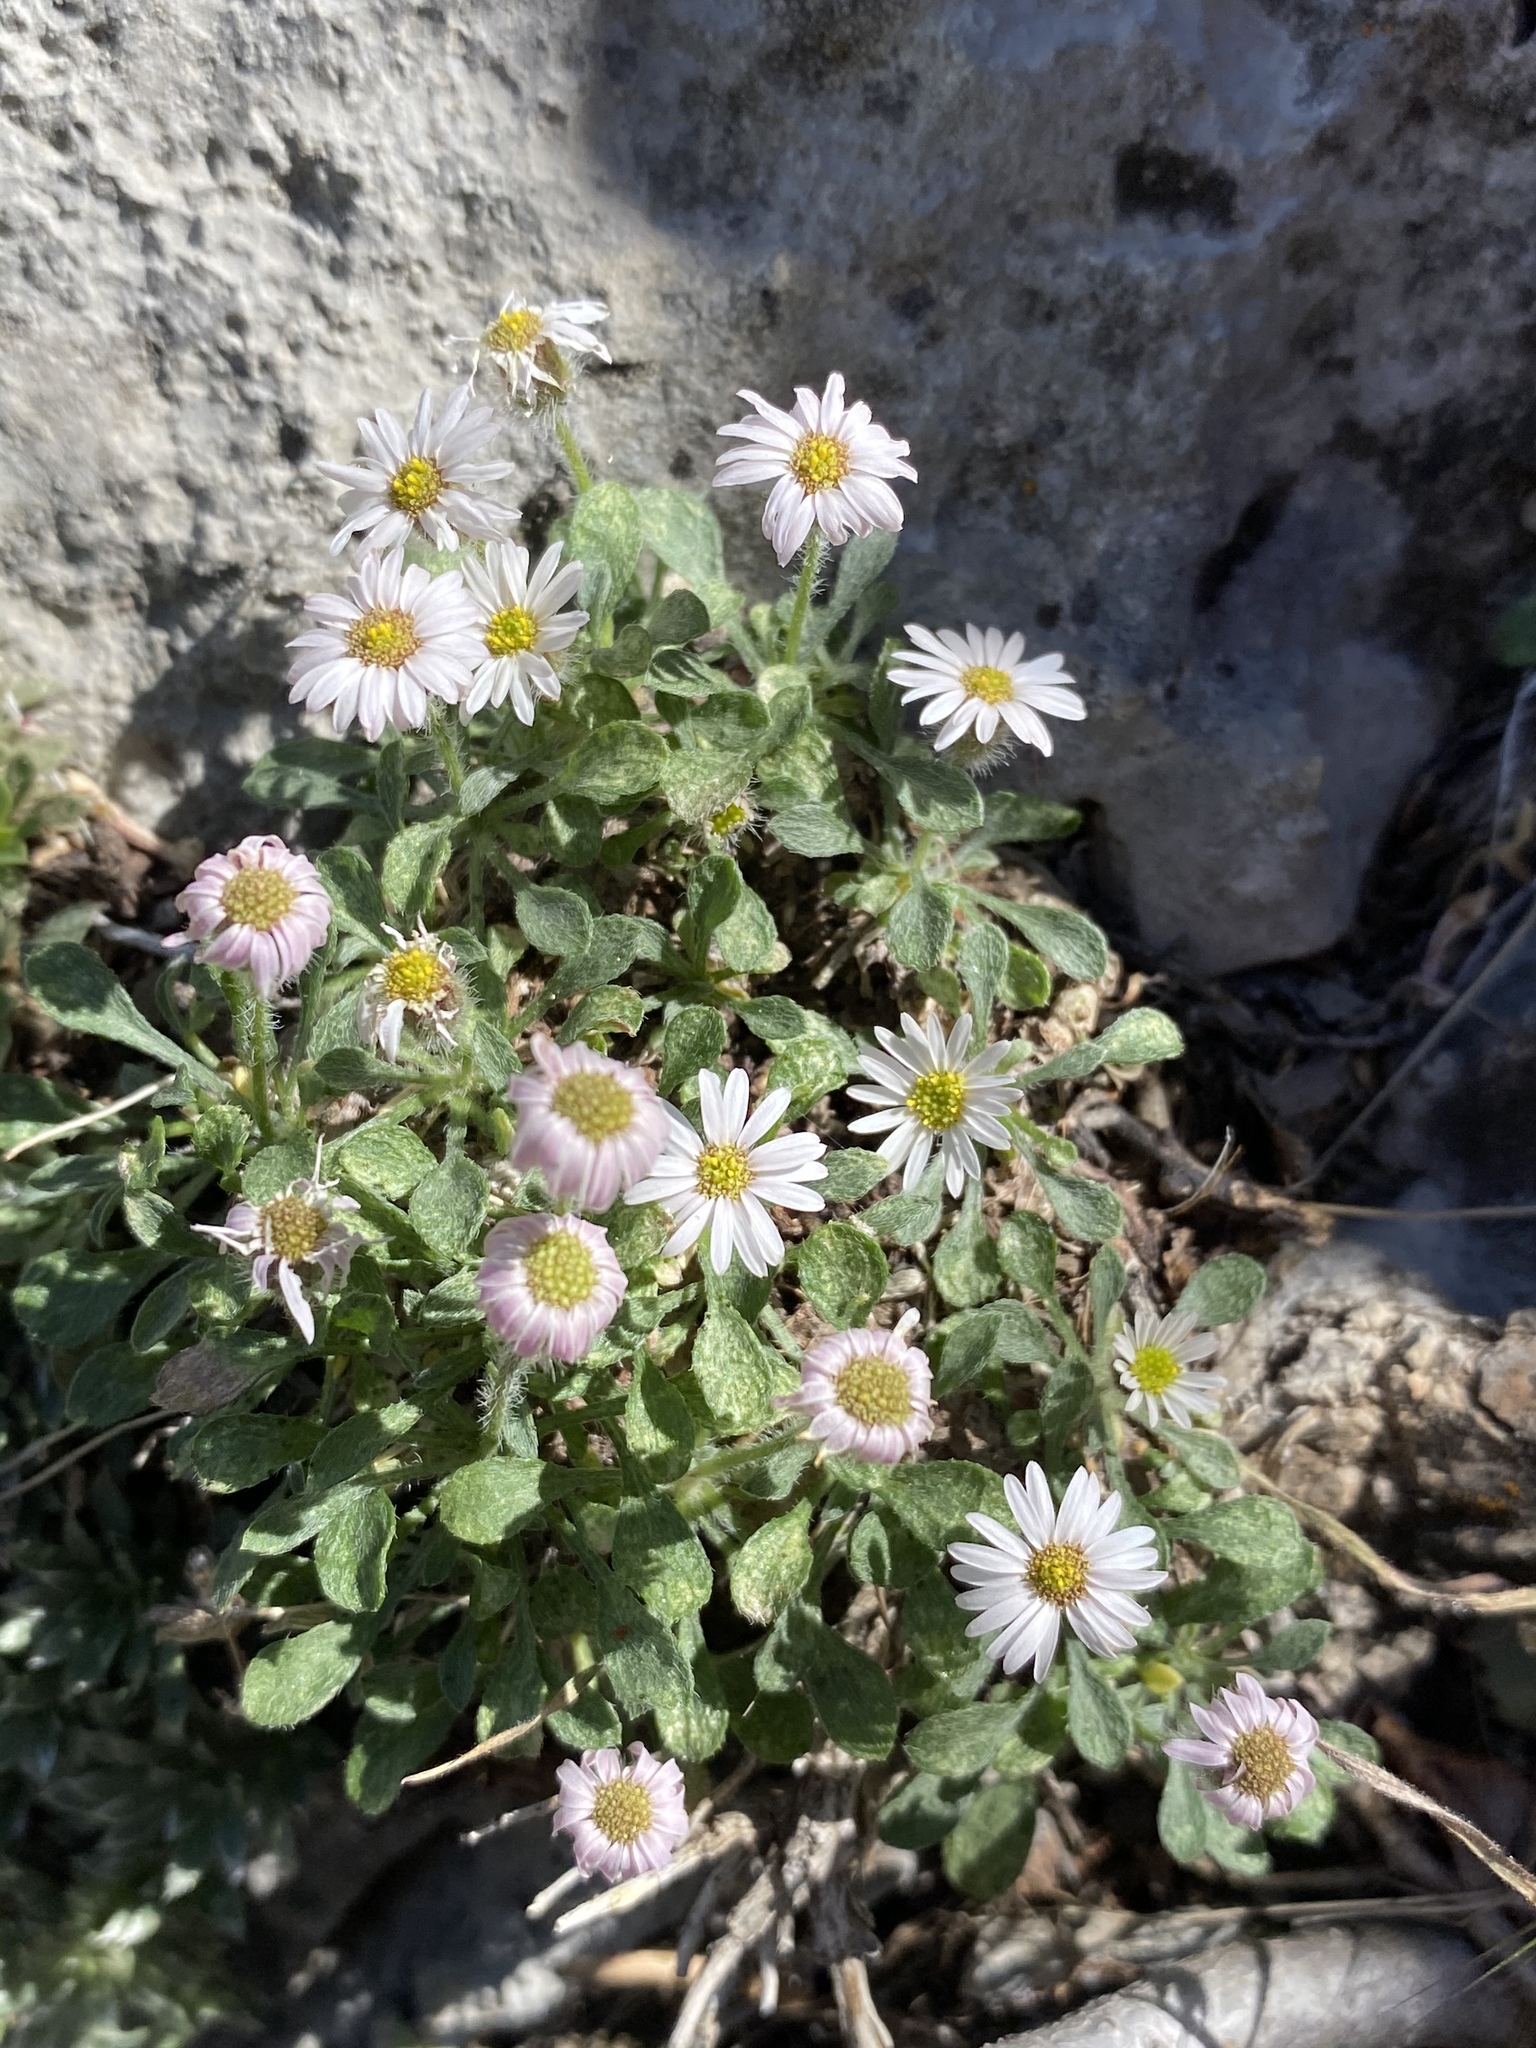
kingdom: Plantae
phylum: Tracheophyta
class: Magnoliopsida
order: Asterales
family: Asteraceae
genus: Erigeron
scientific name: Erigeron uncialis
